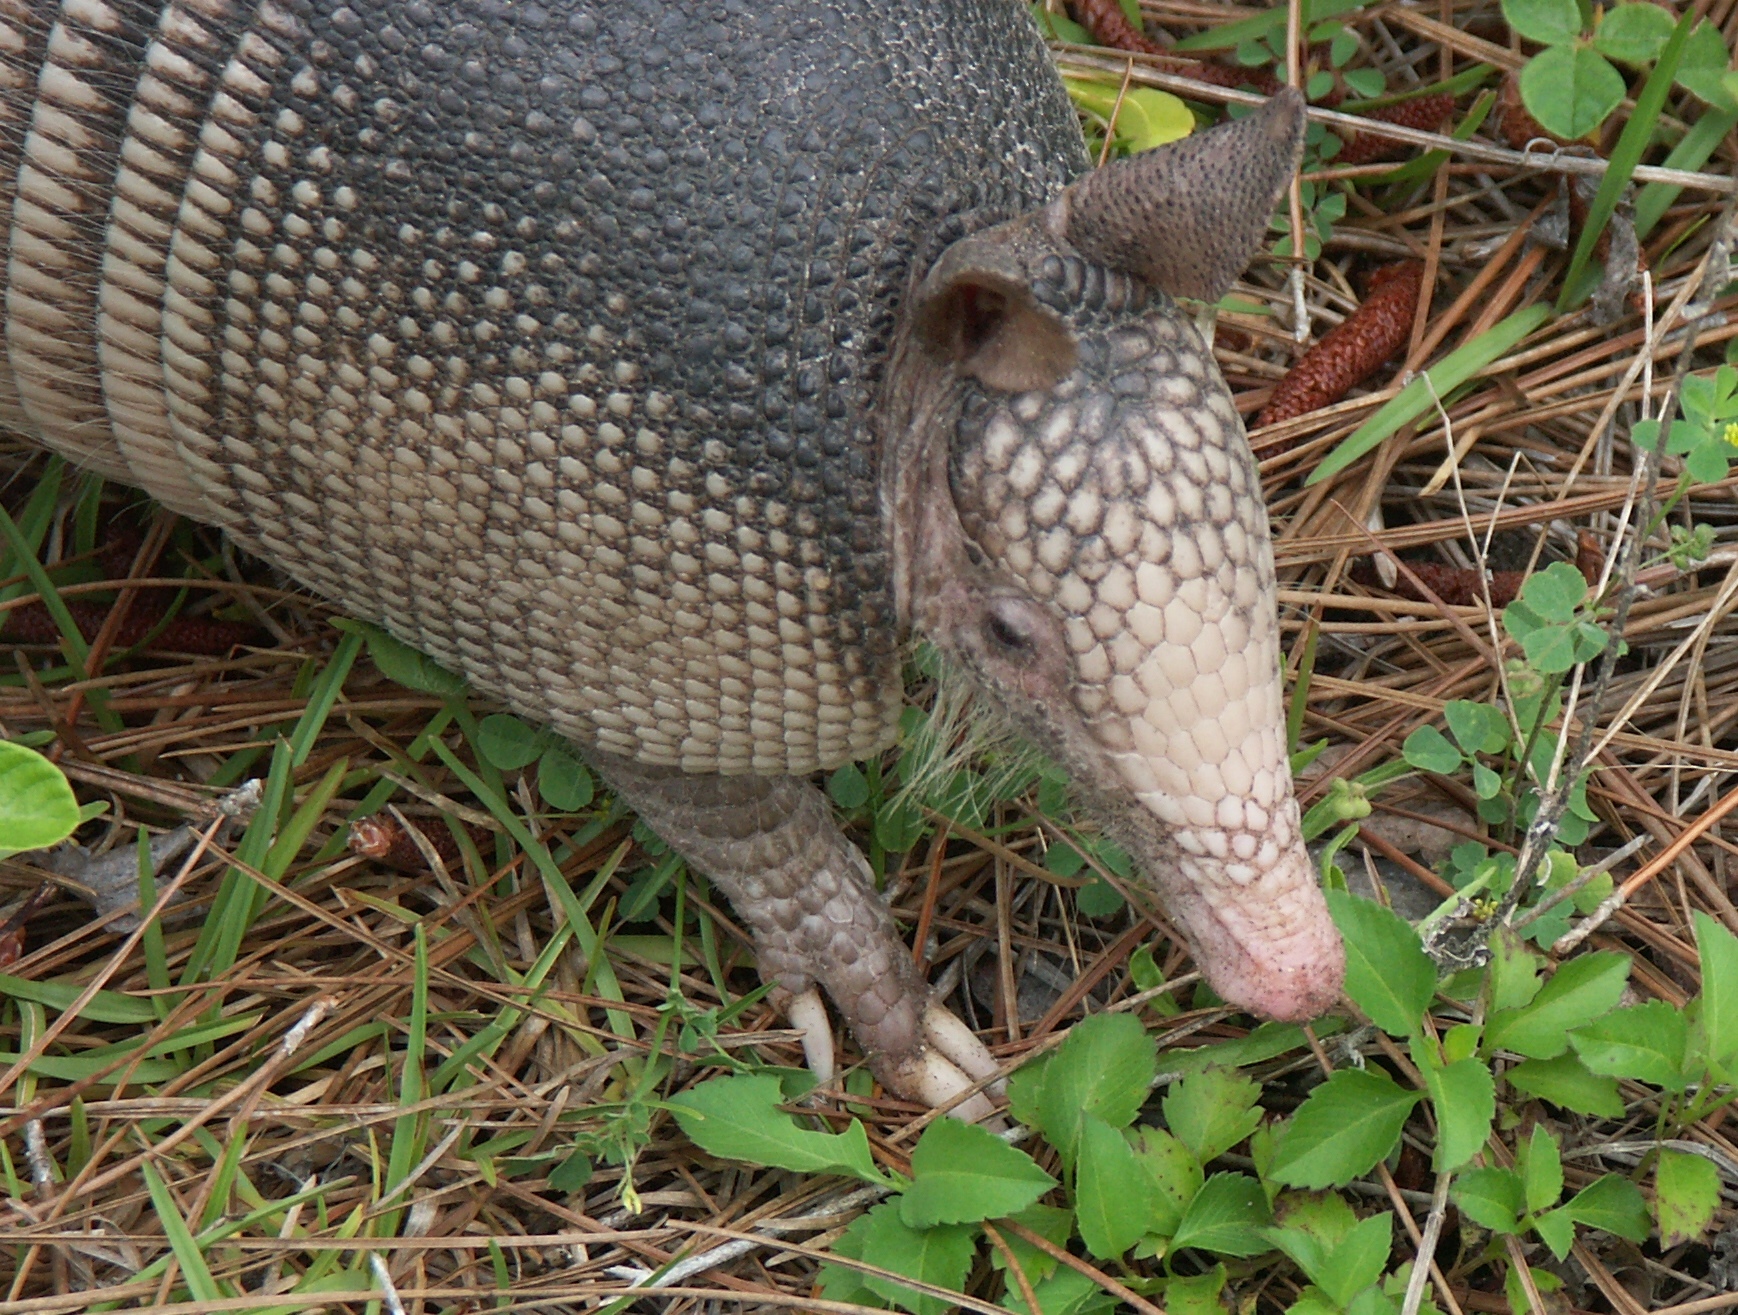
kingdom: Animalia
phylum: Chordata
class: Mammalia
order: Cingulata
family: Dasypodidae
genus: Dasypus
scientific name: Dasypus novemcinctus
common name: Nine-banded armadillo
